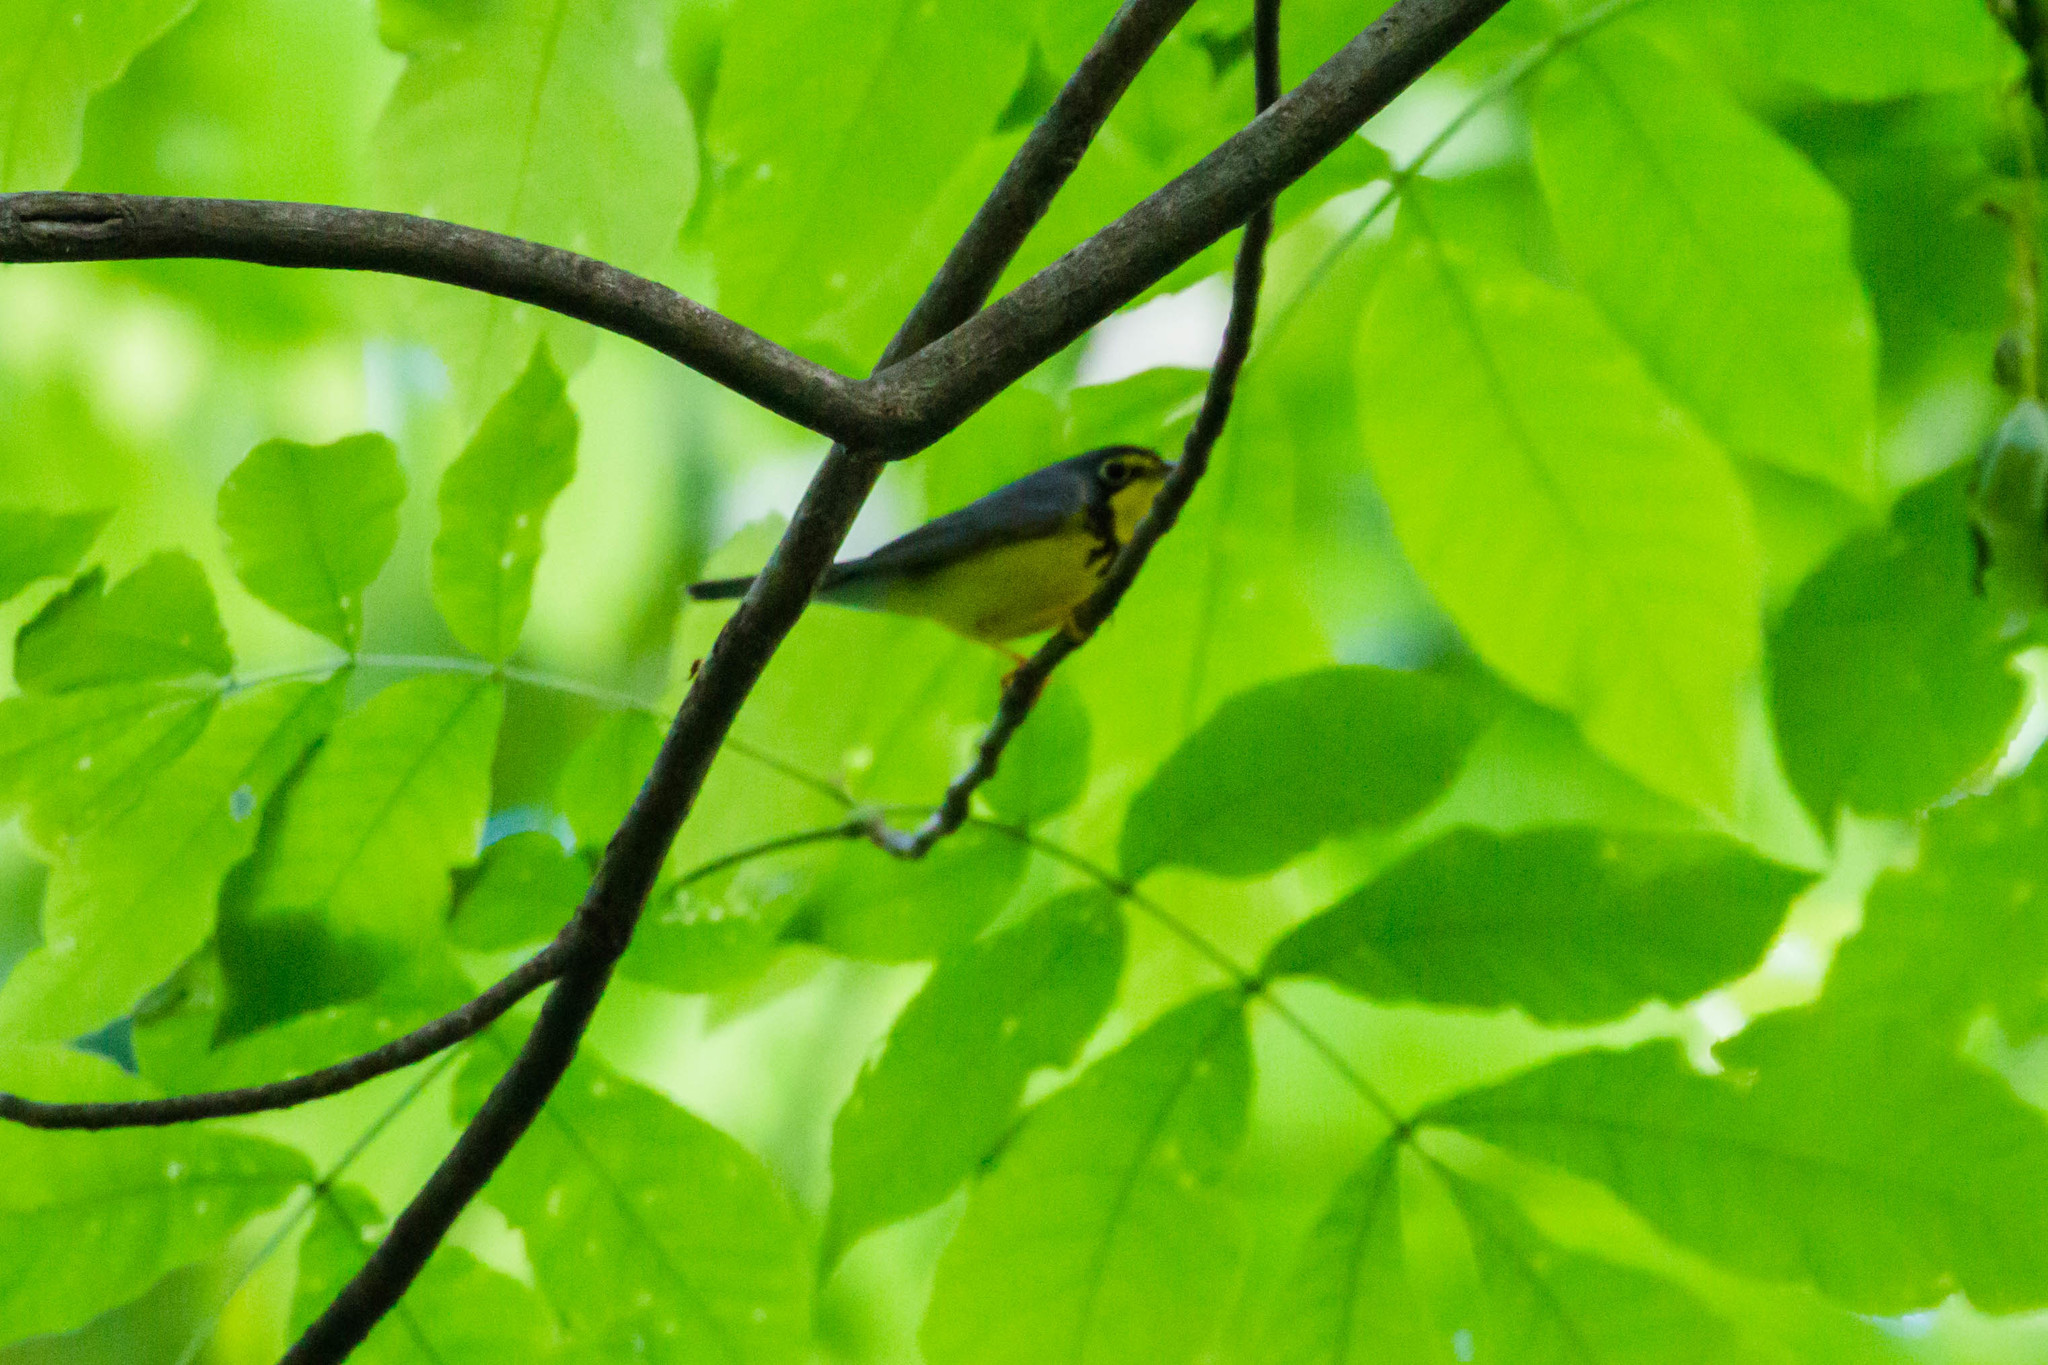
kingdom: Animalia
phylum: Chordata
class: Aves
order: Passeriformes
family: Parulidae
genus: Cardellina
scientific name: Cardellina canadensis
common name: Canada warbler
